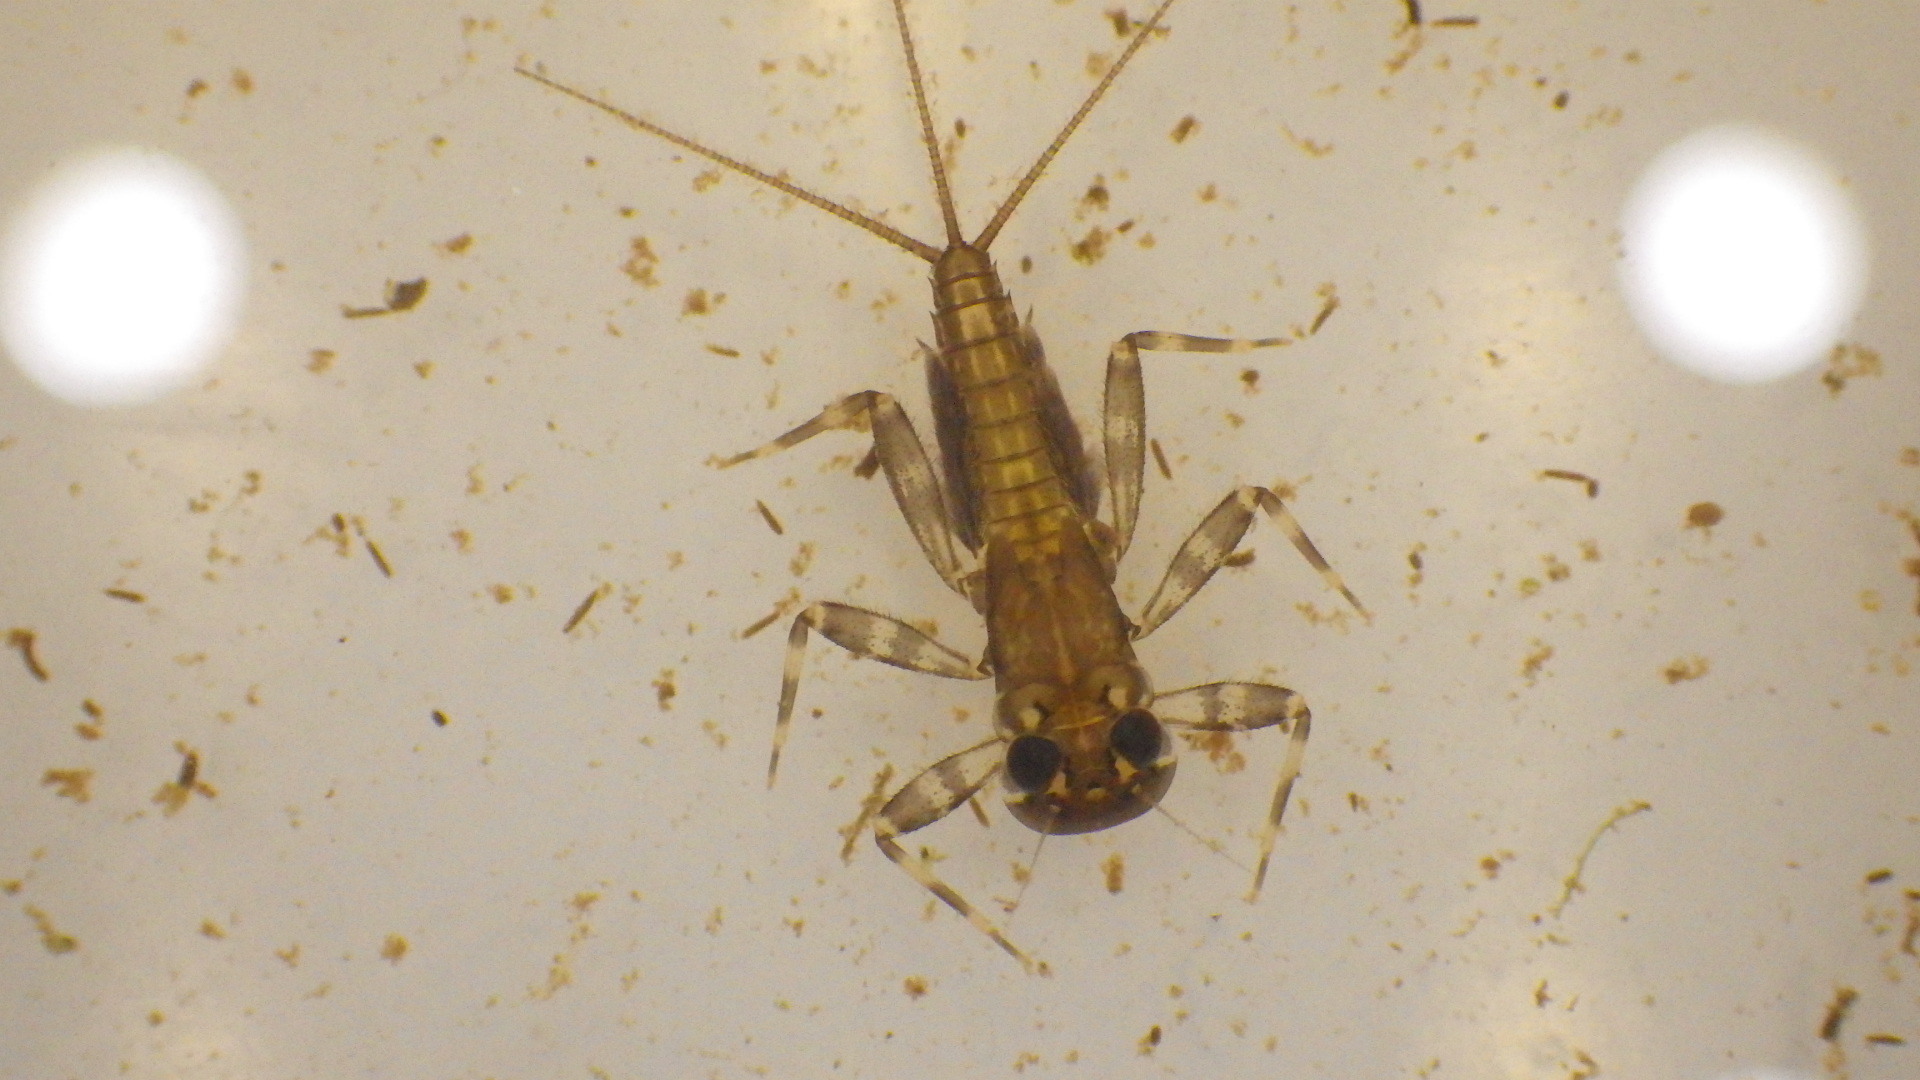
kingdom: Animalia
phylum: Arthropoda
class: Insecta
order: Ephemeroptera
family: Heptageniidae
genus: Stenacron
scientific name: Stenacron interpunctatum
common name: Orange cahill
